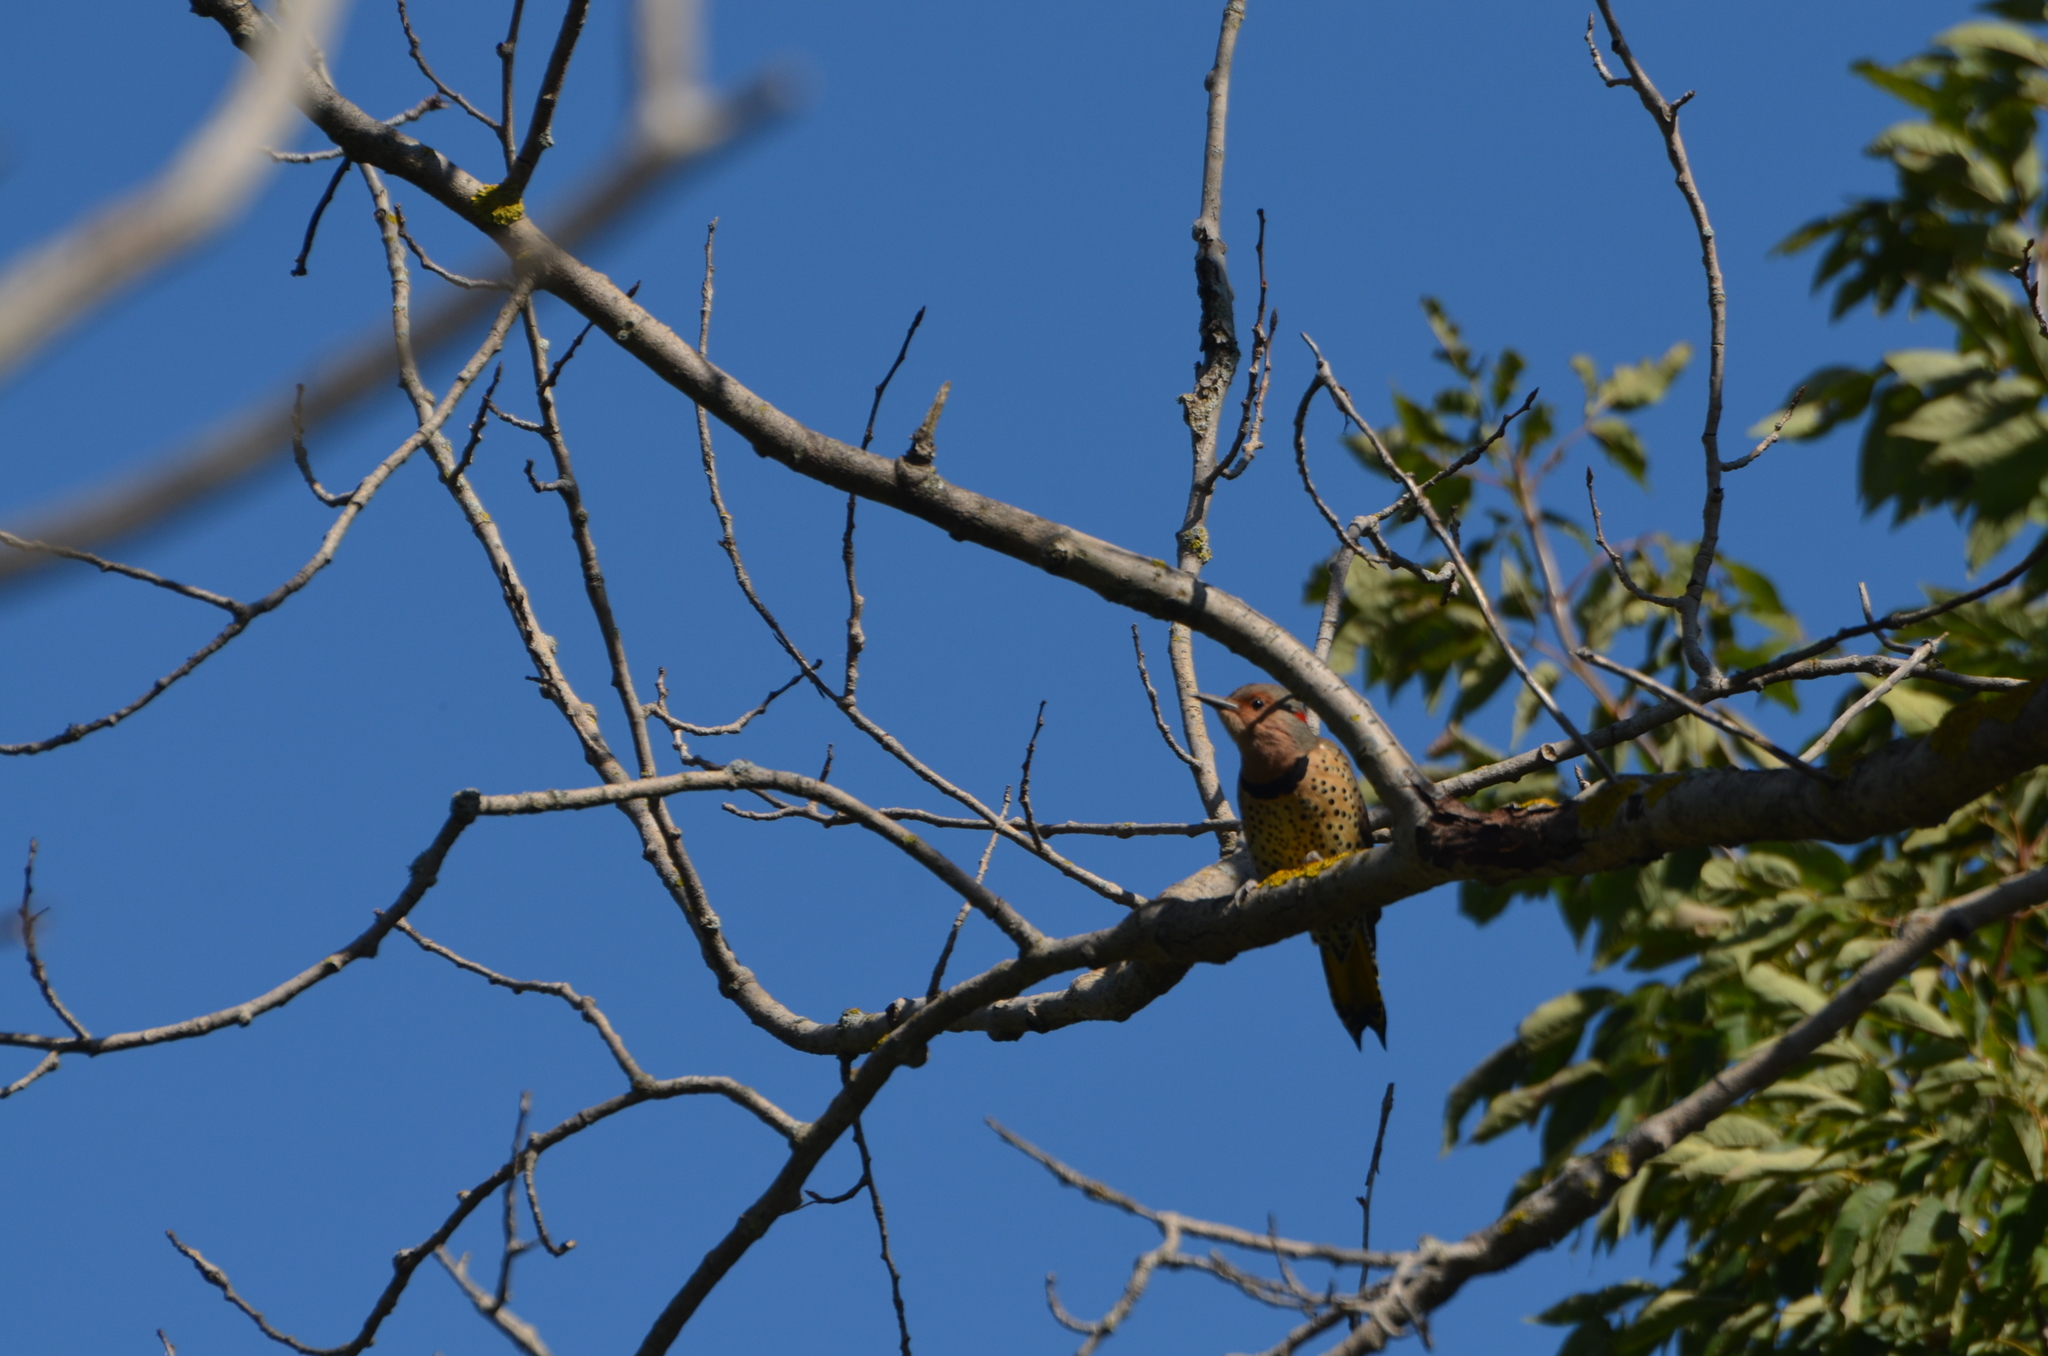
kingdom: Animalia
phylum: Chordata
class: Aves
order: Piciformes
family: Picidae
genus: Colaptes
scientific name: Colaptes auratus
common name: Northern flicker
